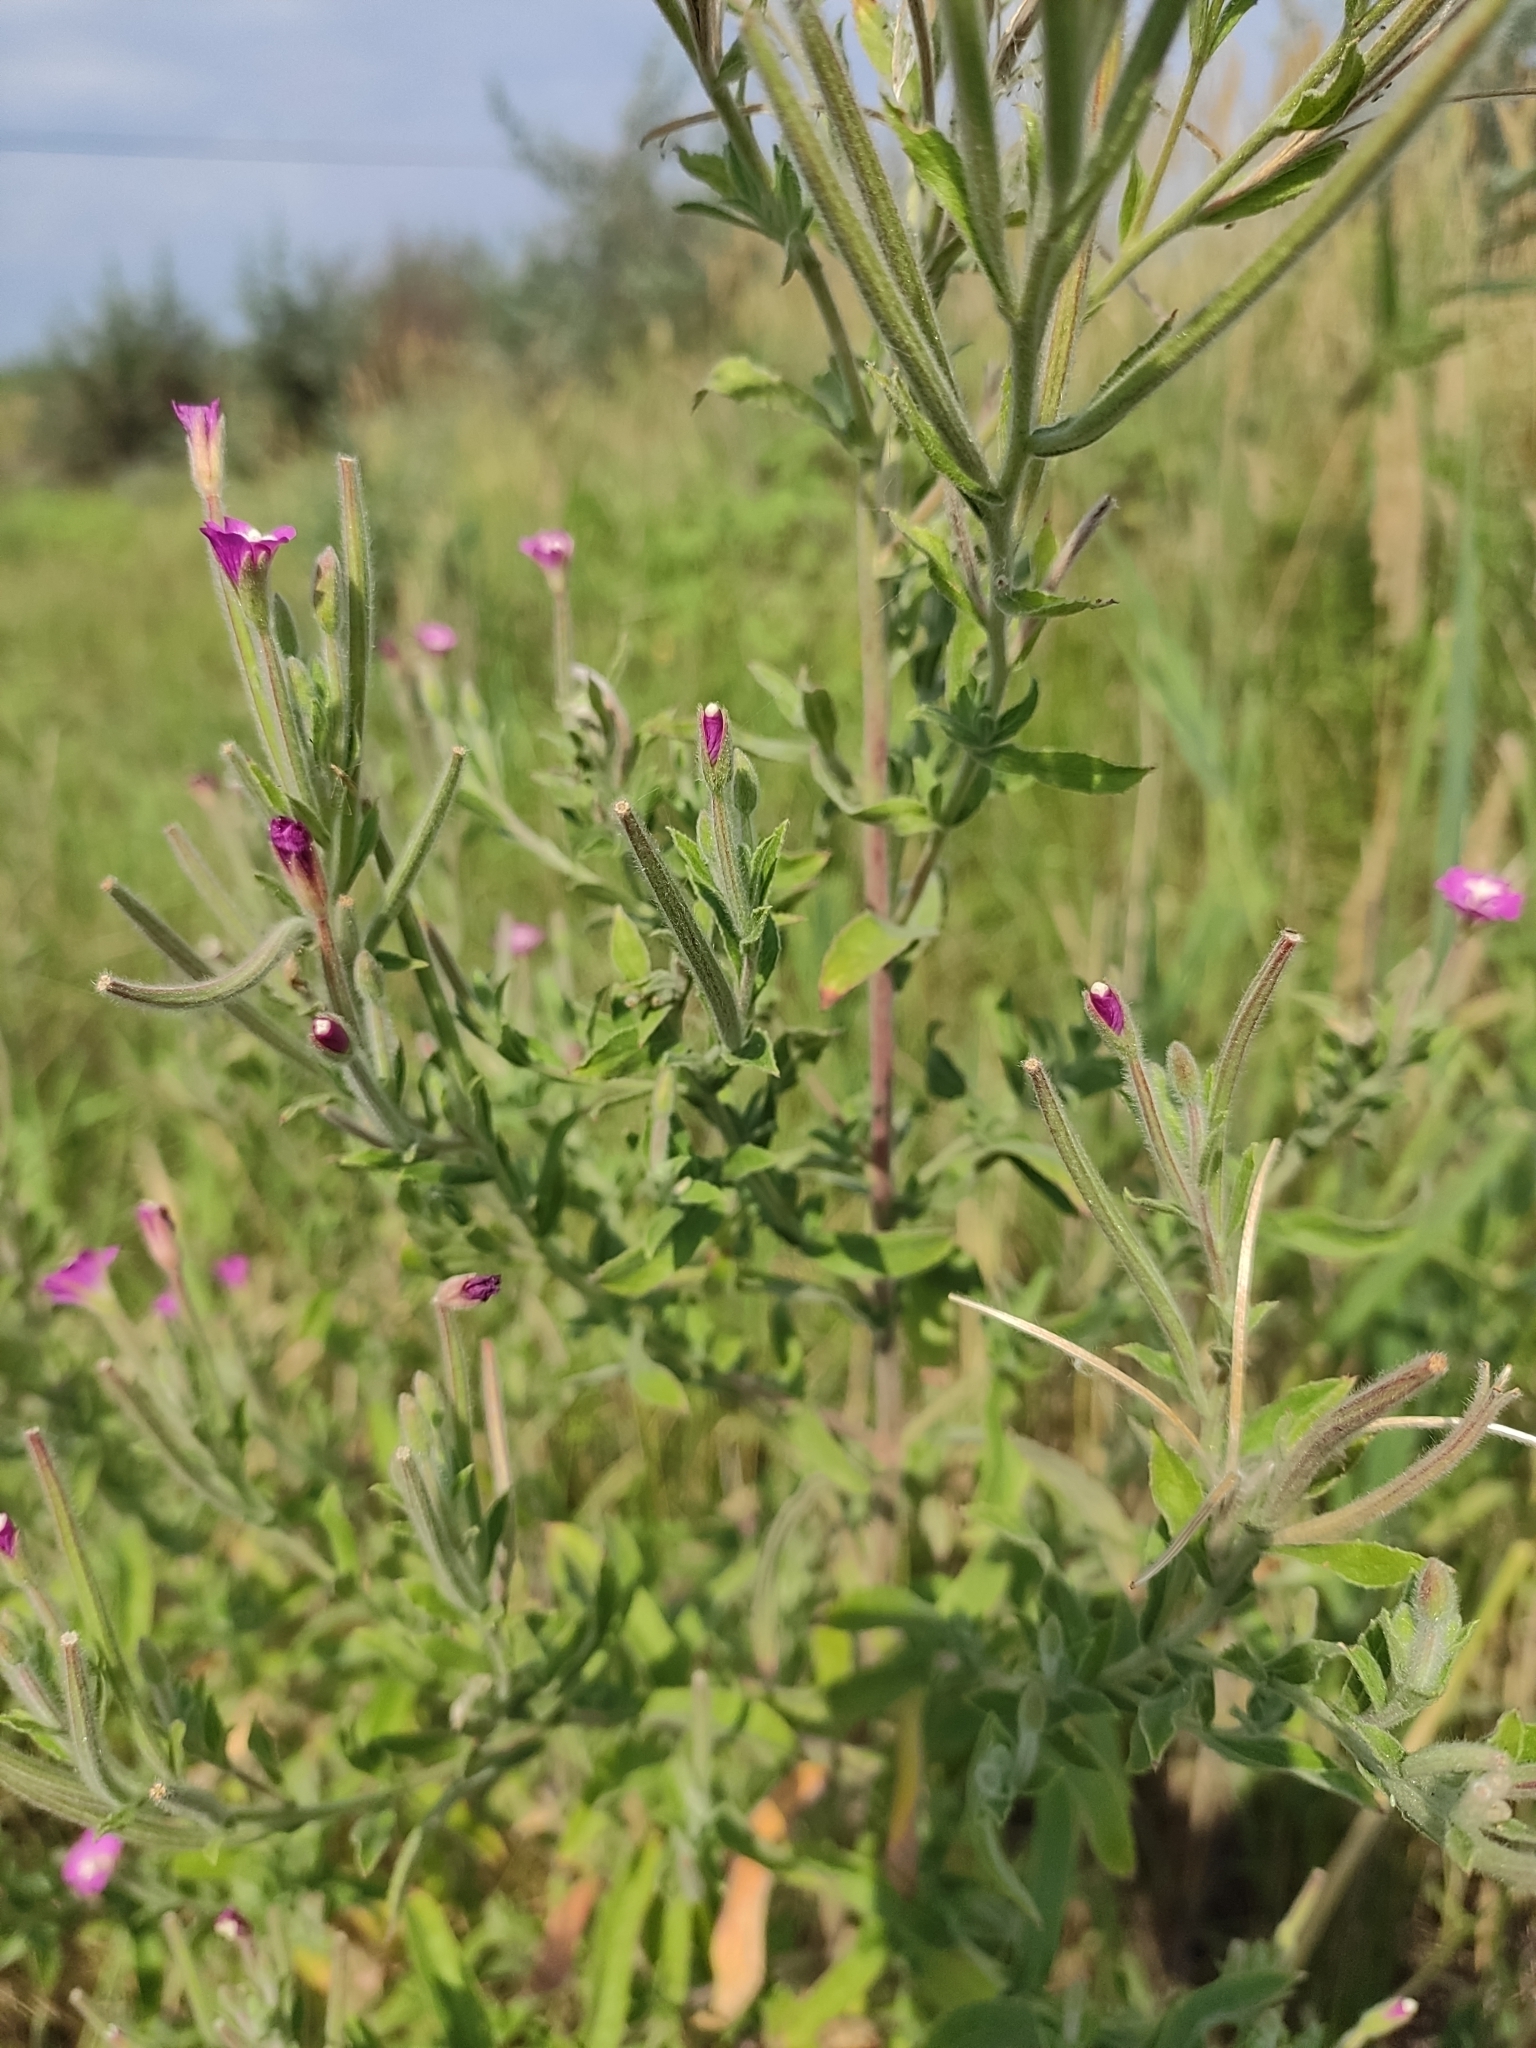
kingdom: Plantae
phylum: Tracheophyta
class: Magnoliopsida
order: Myrtales
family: Onagraceae
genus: Epilobium
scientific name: Epilobium hirsutum
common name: Great willowherb
